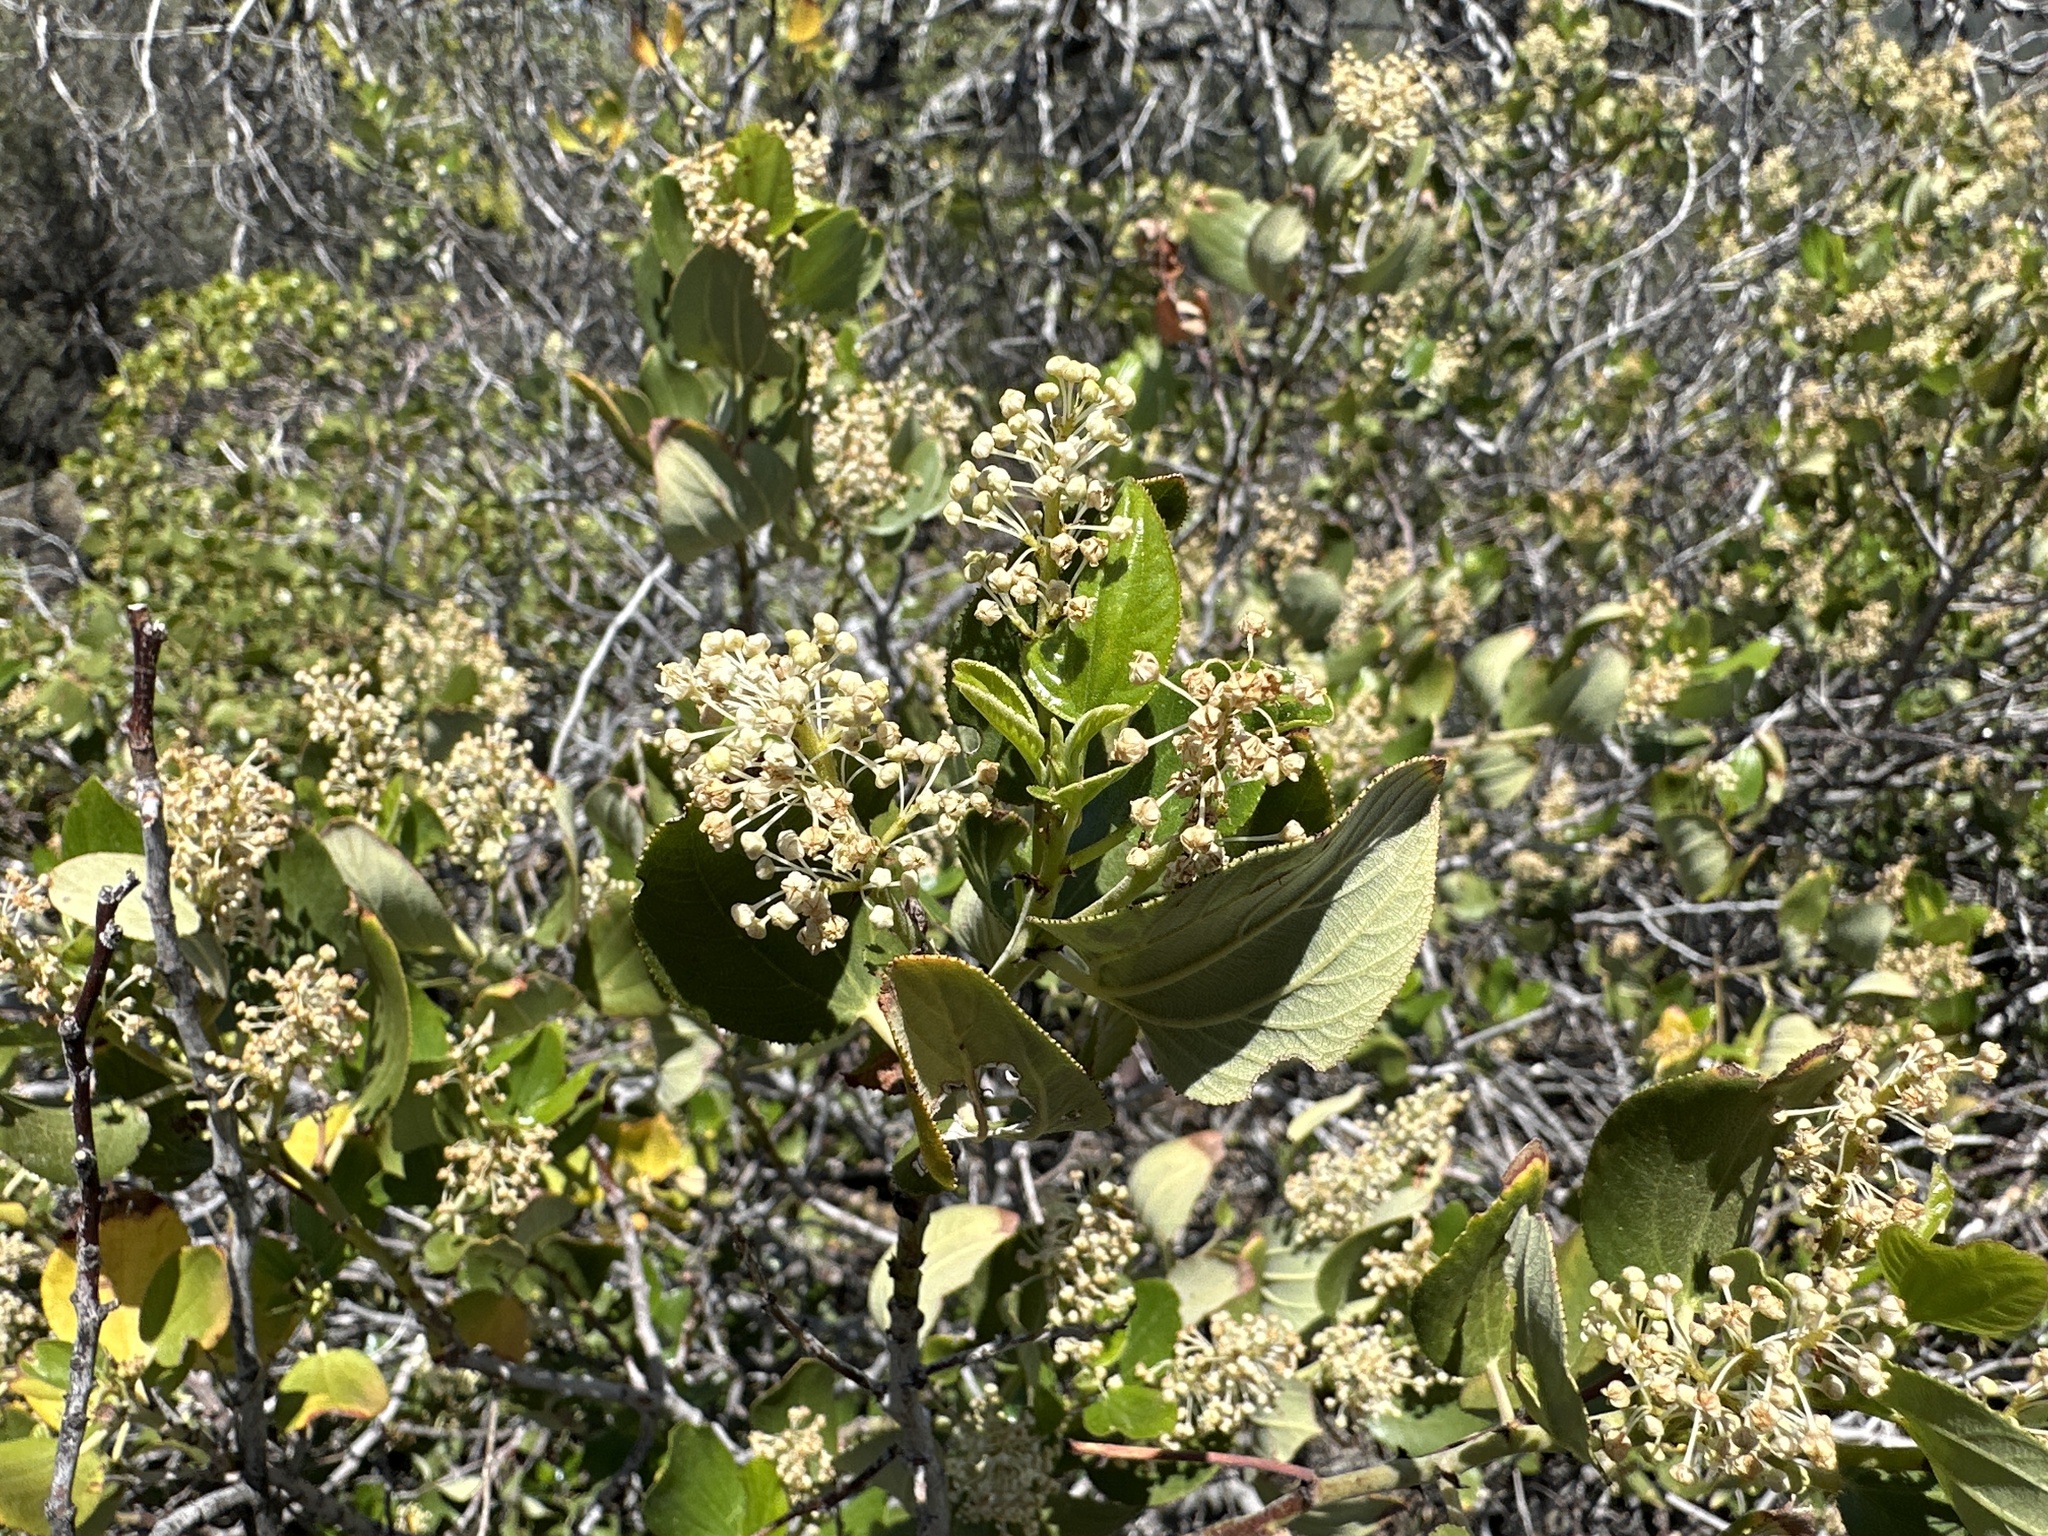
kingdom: Plantae
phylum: Tracheophyta
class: Magnoliopsida
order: Rosales
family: Rhamnaceae
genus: Ceanothus
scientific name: Ceanothus velutinus
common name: Snowbrush
